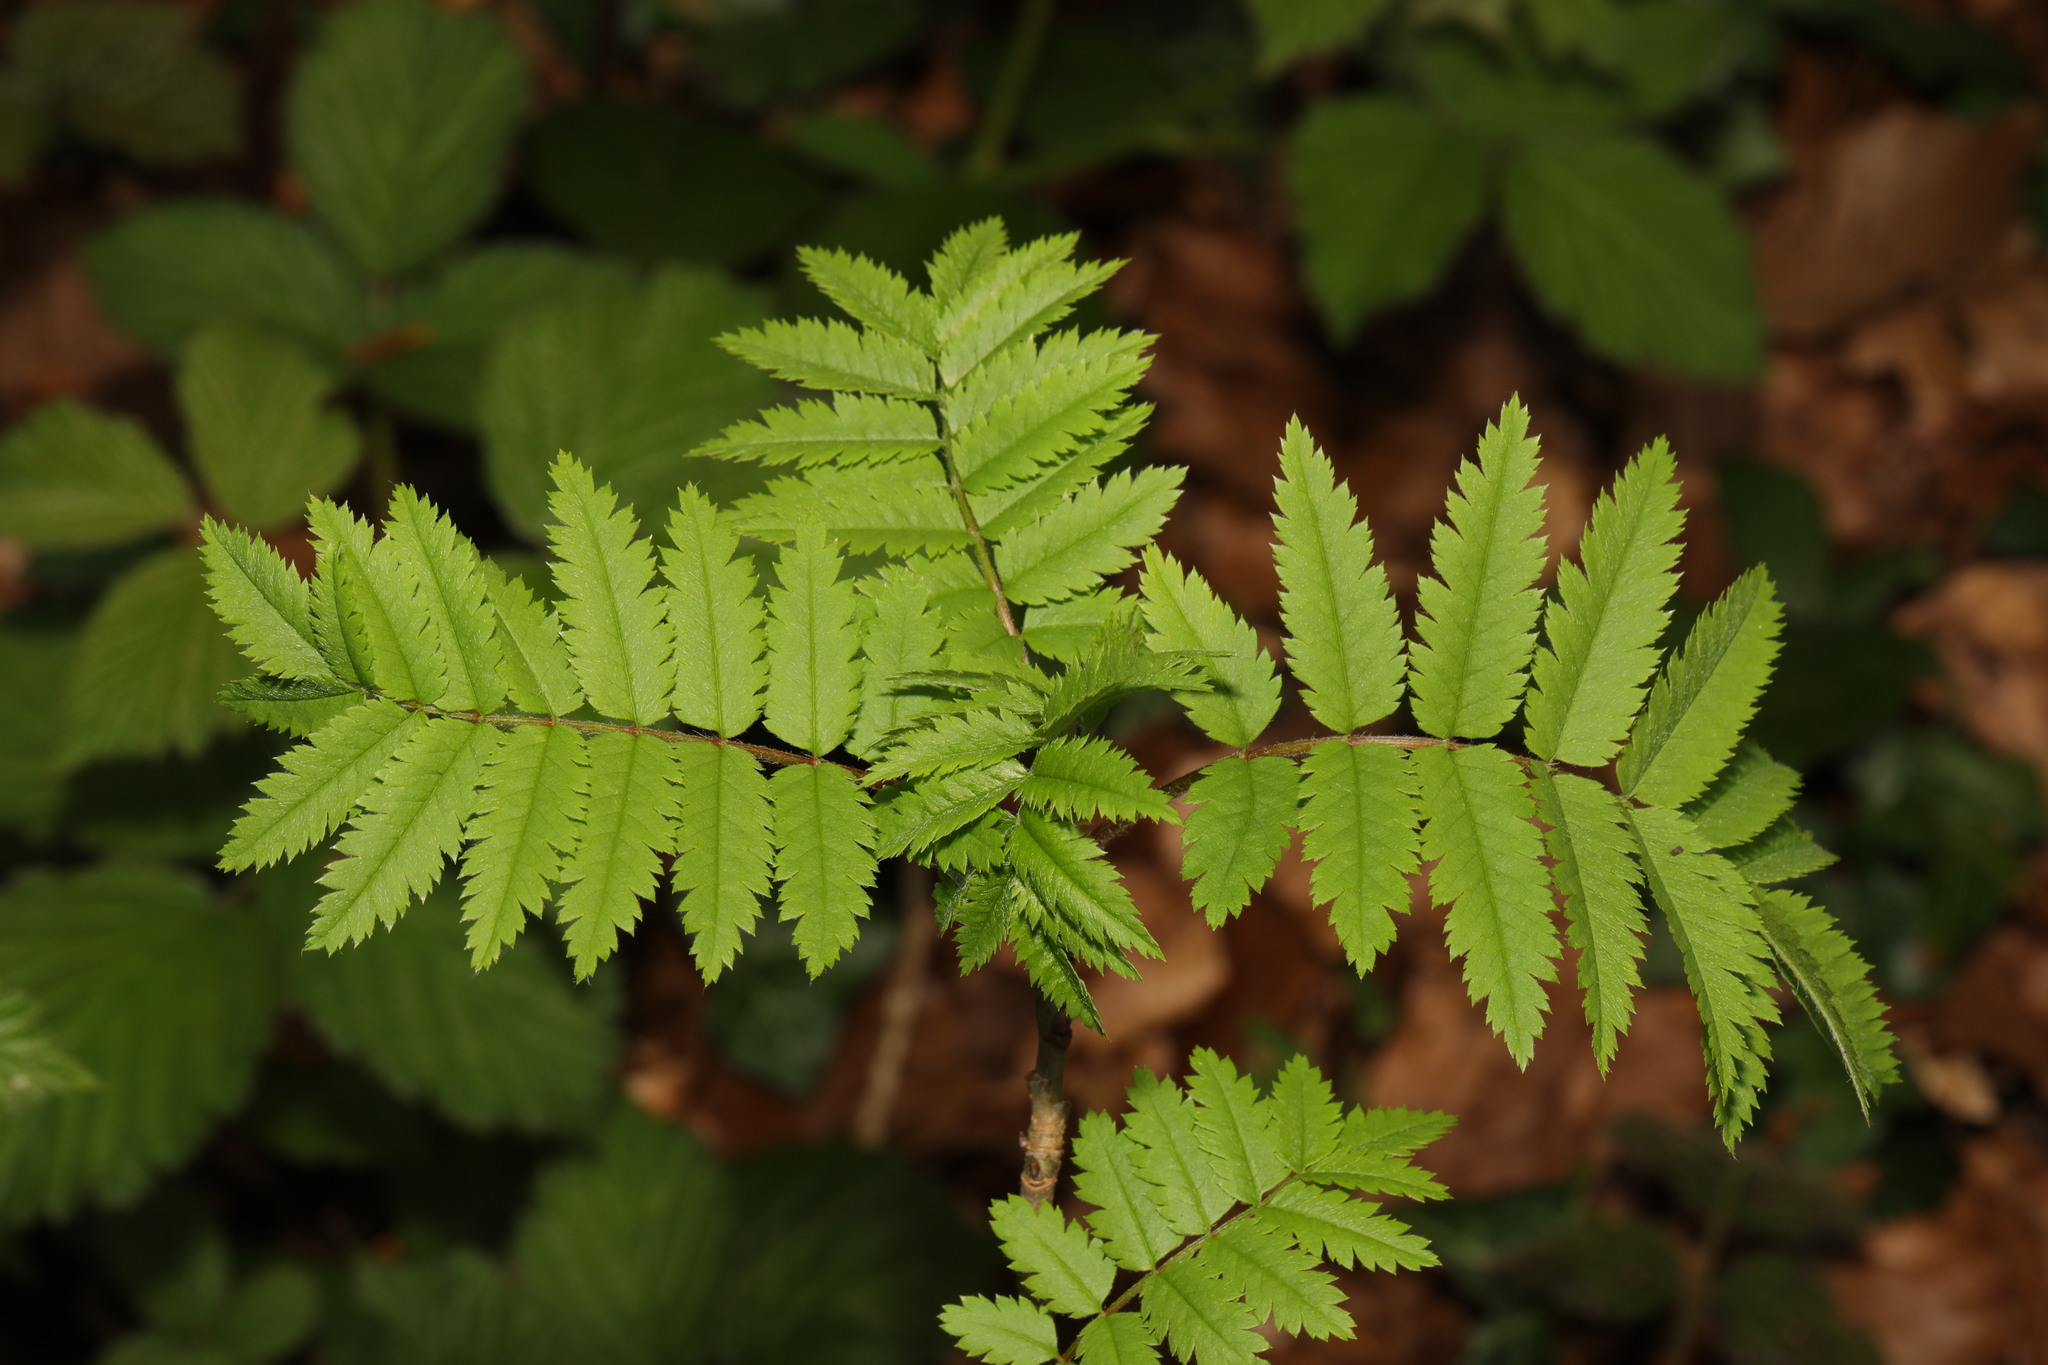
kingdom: Plantae
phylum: Tracheophyta
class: Magnoliopsida
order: Rosales
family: Rosaceae
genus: Sorbus
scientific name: Sorbus aucuparia
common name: Rowan
